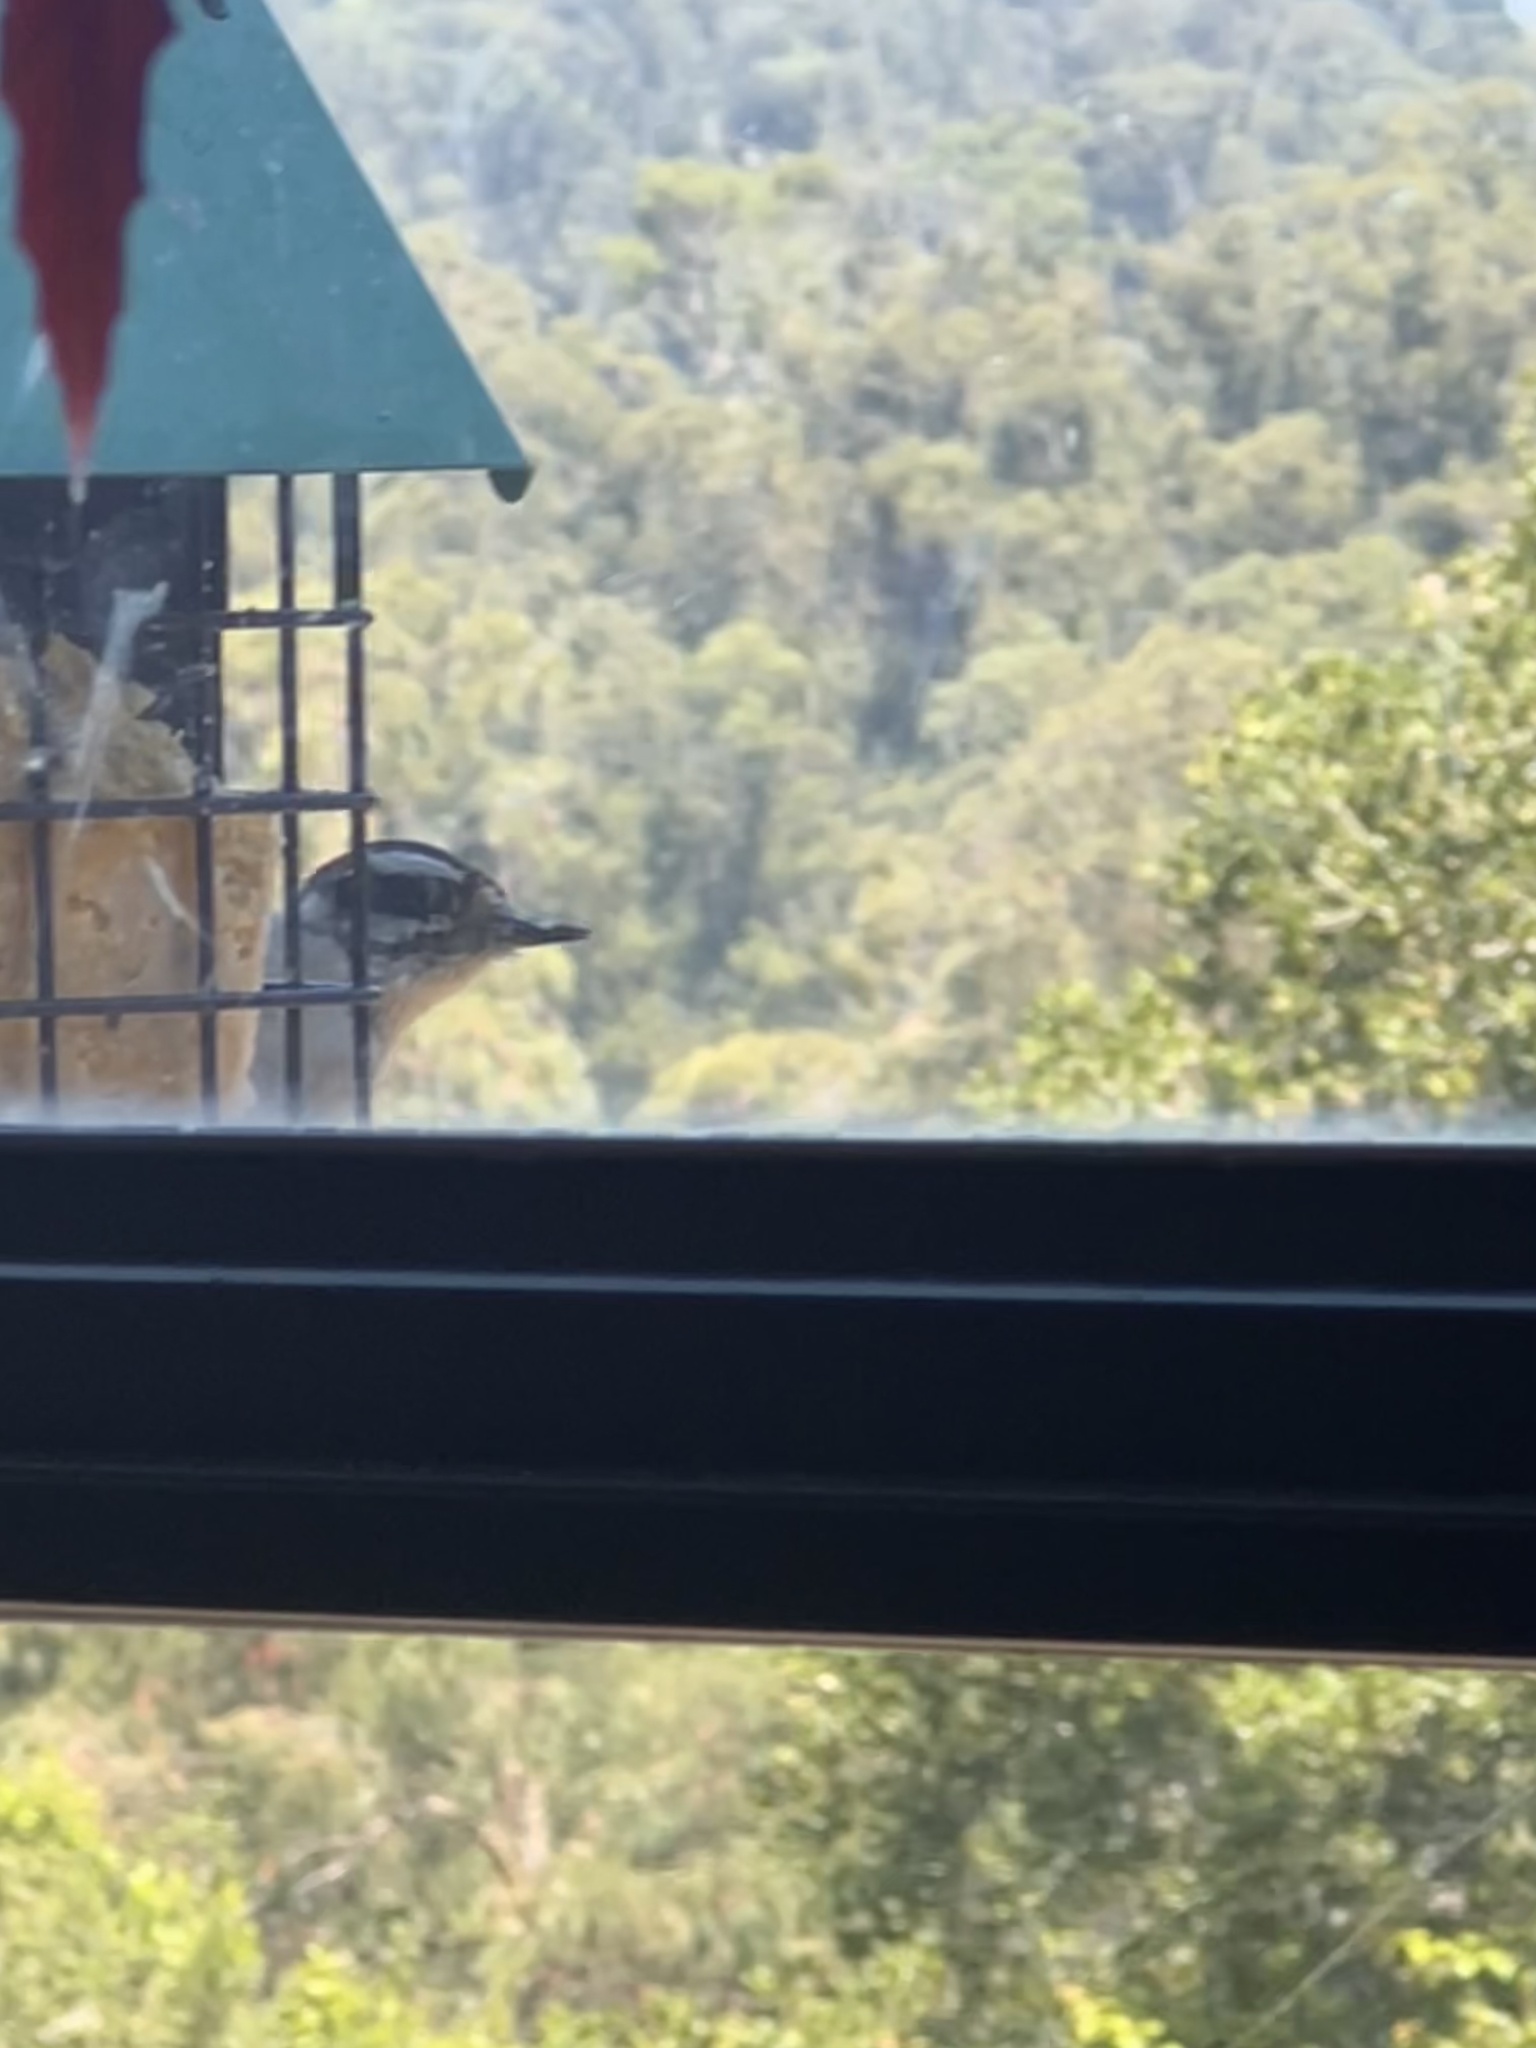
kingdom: Animalia
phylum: Chordata
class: Aves
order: Piciformes
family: Picidae
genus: Dryobates
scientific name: Dryobates pubescens
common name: Downy woodpecker
